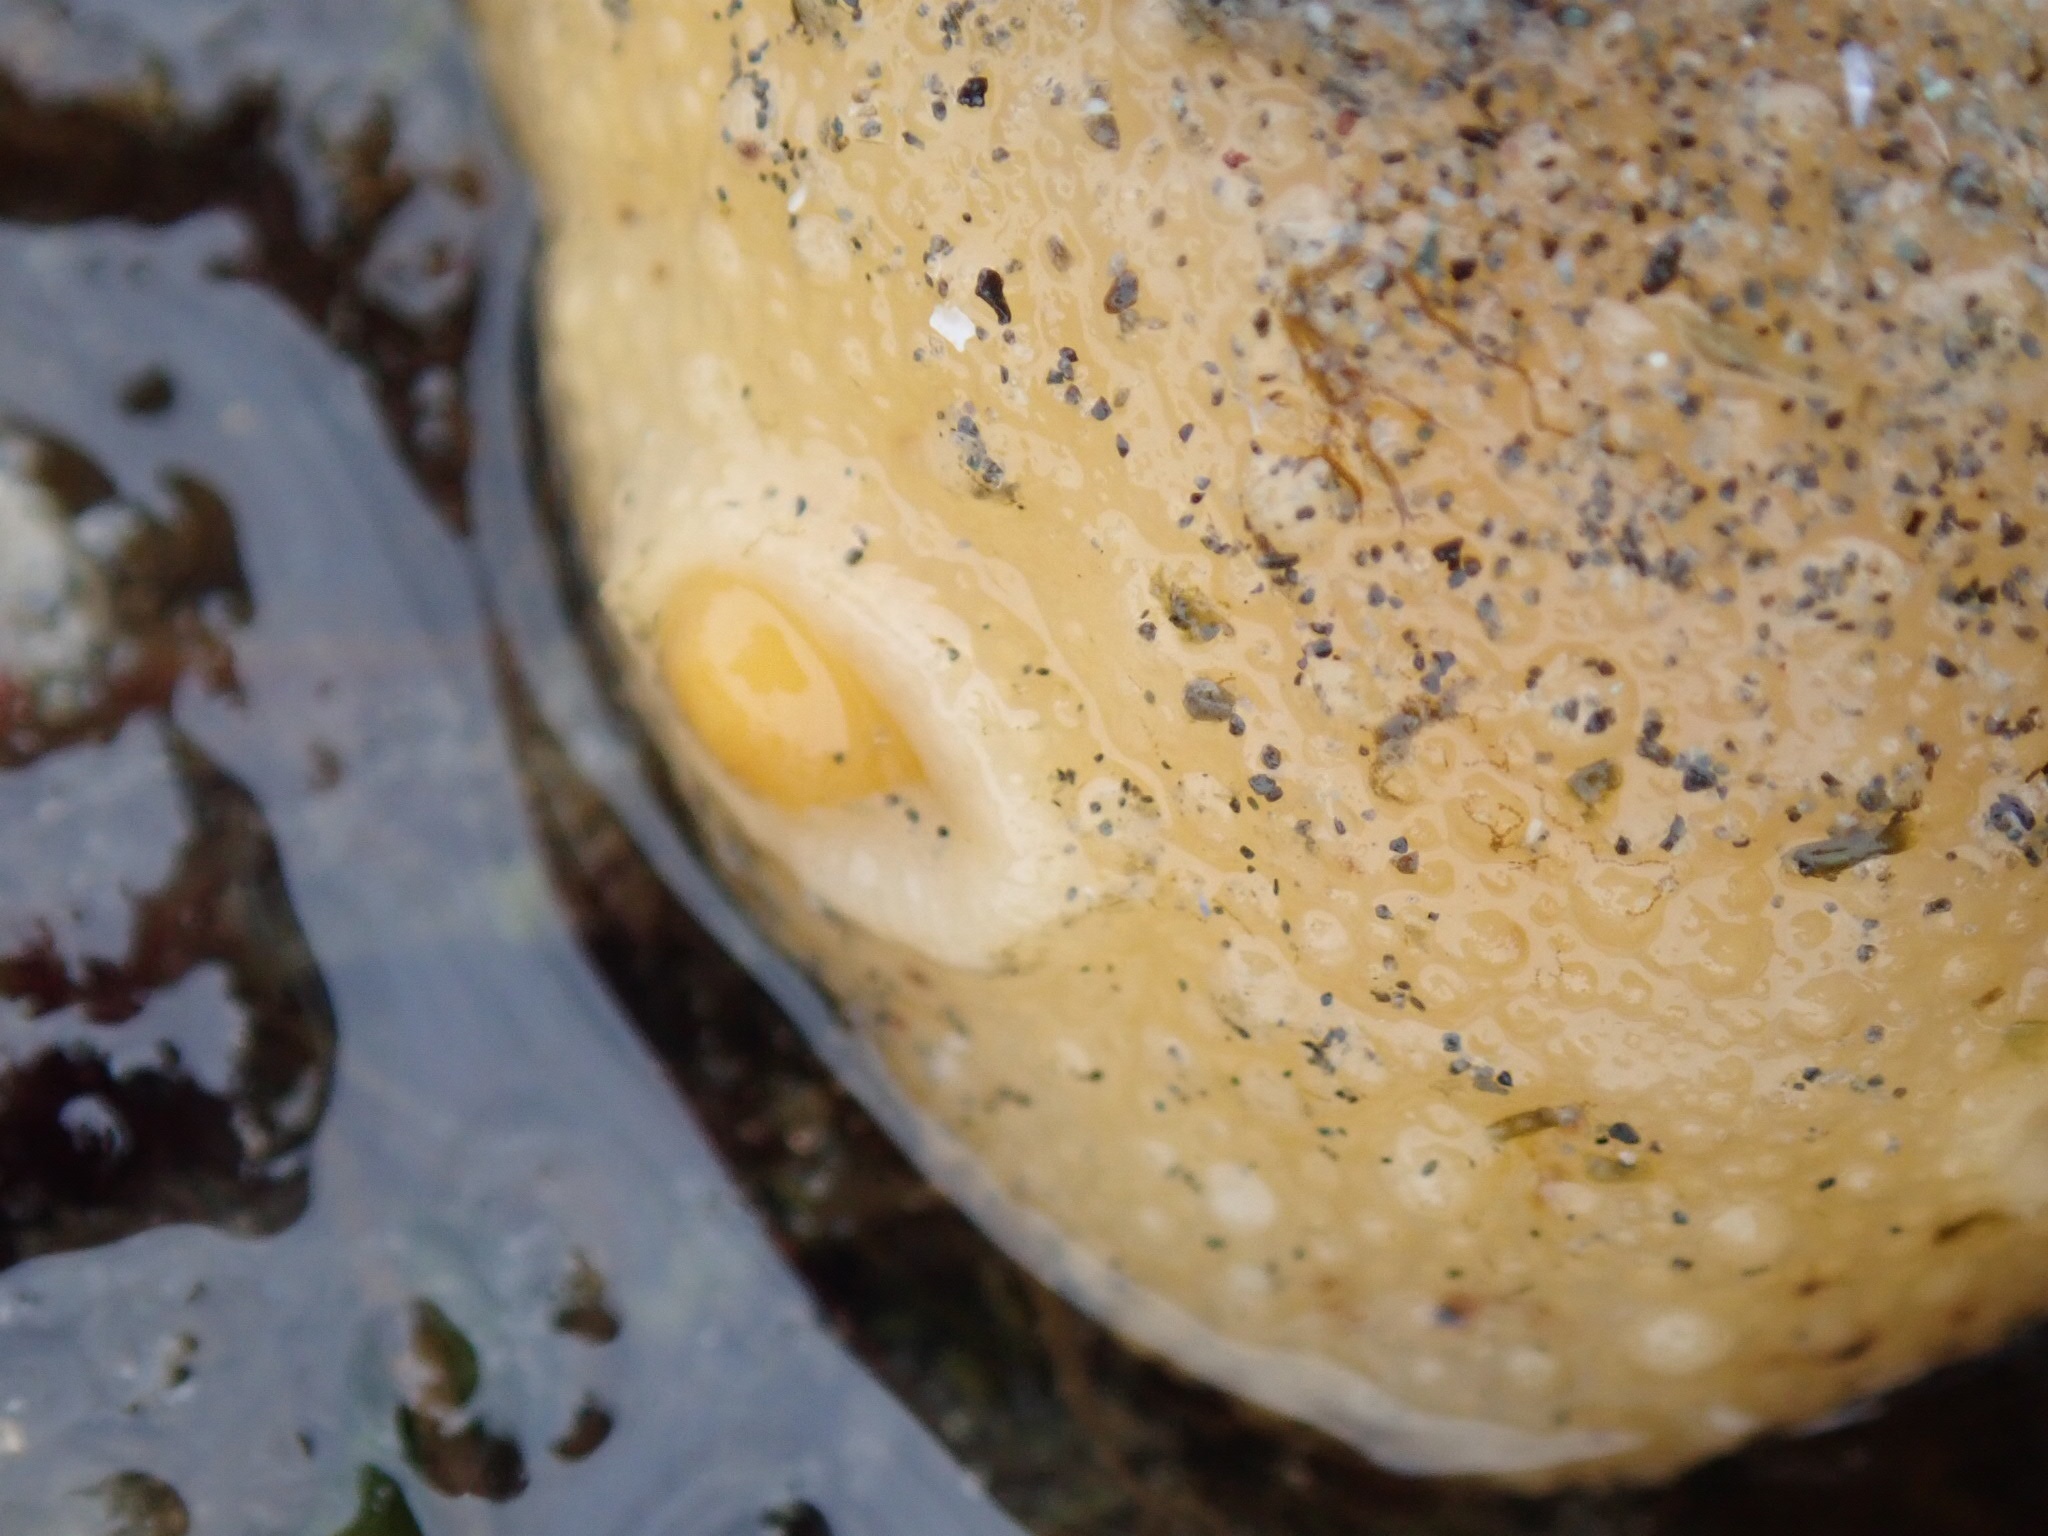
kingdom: Animalia
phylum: Mollusca
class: Gastropoda
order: Nudibranchia
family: Dorididae
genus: Doris
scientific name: Doris montereyensis
